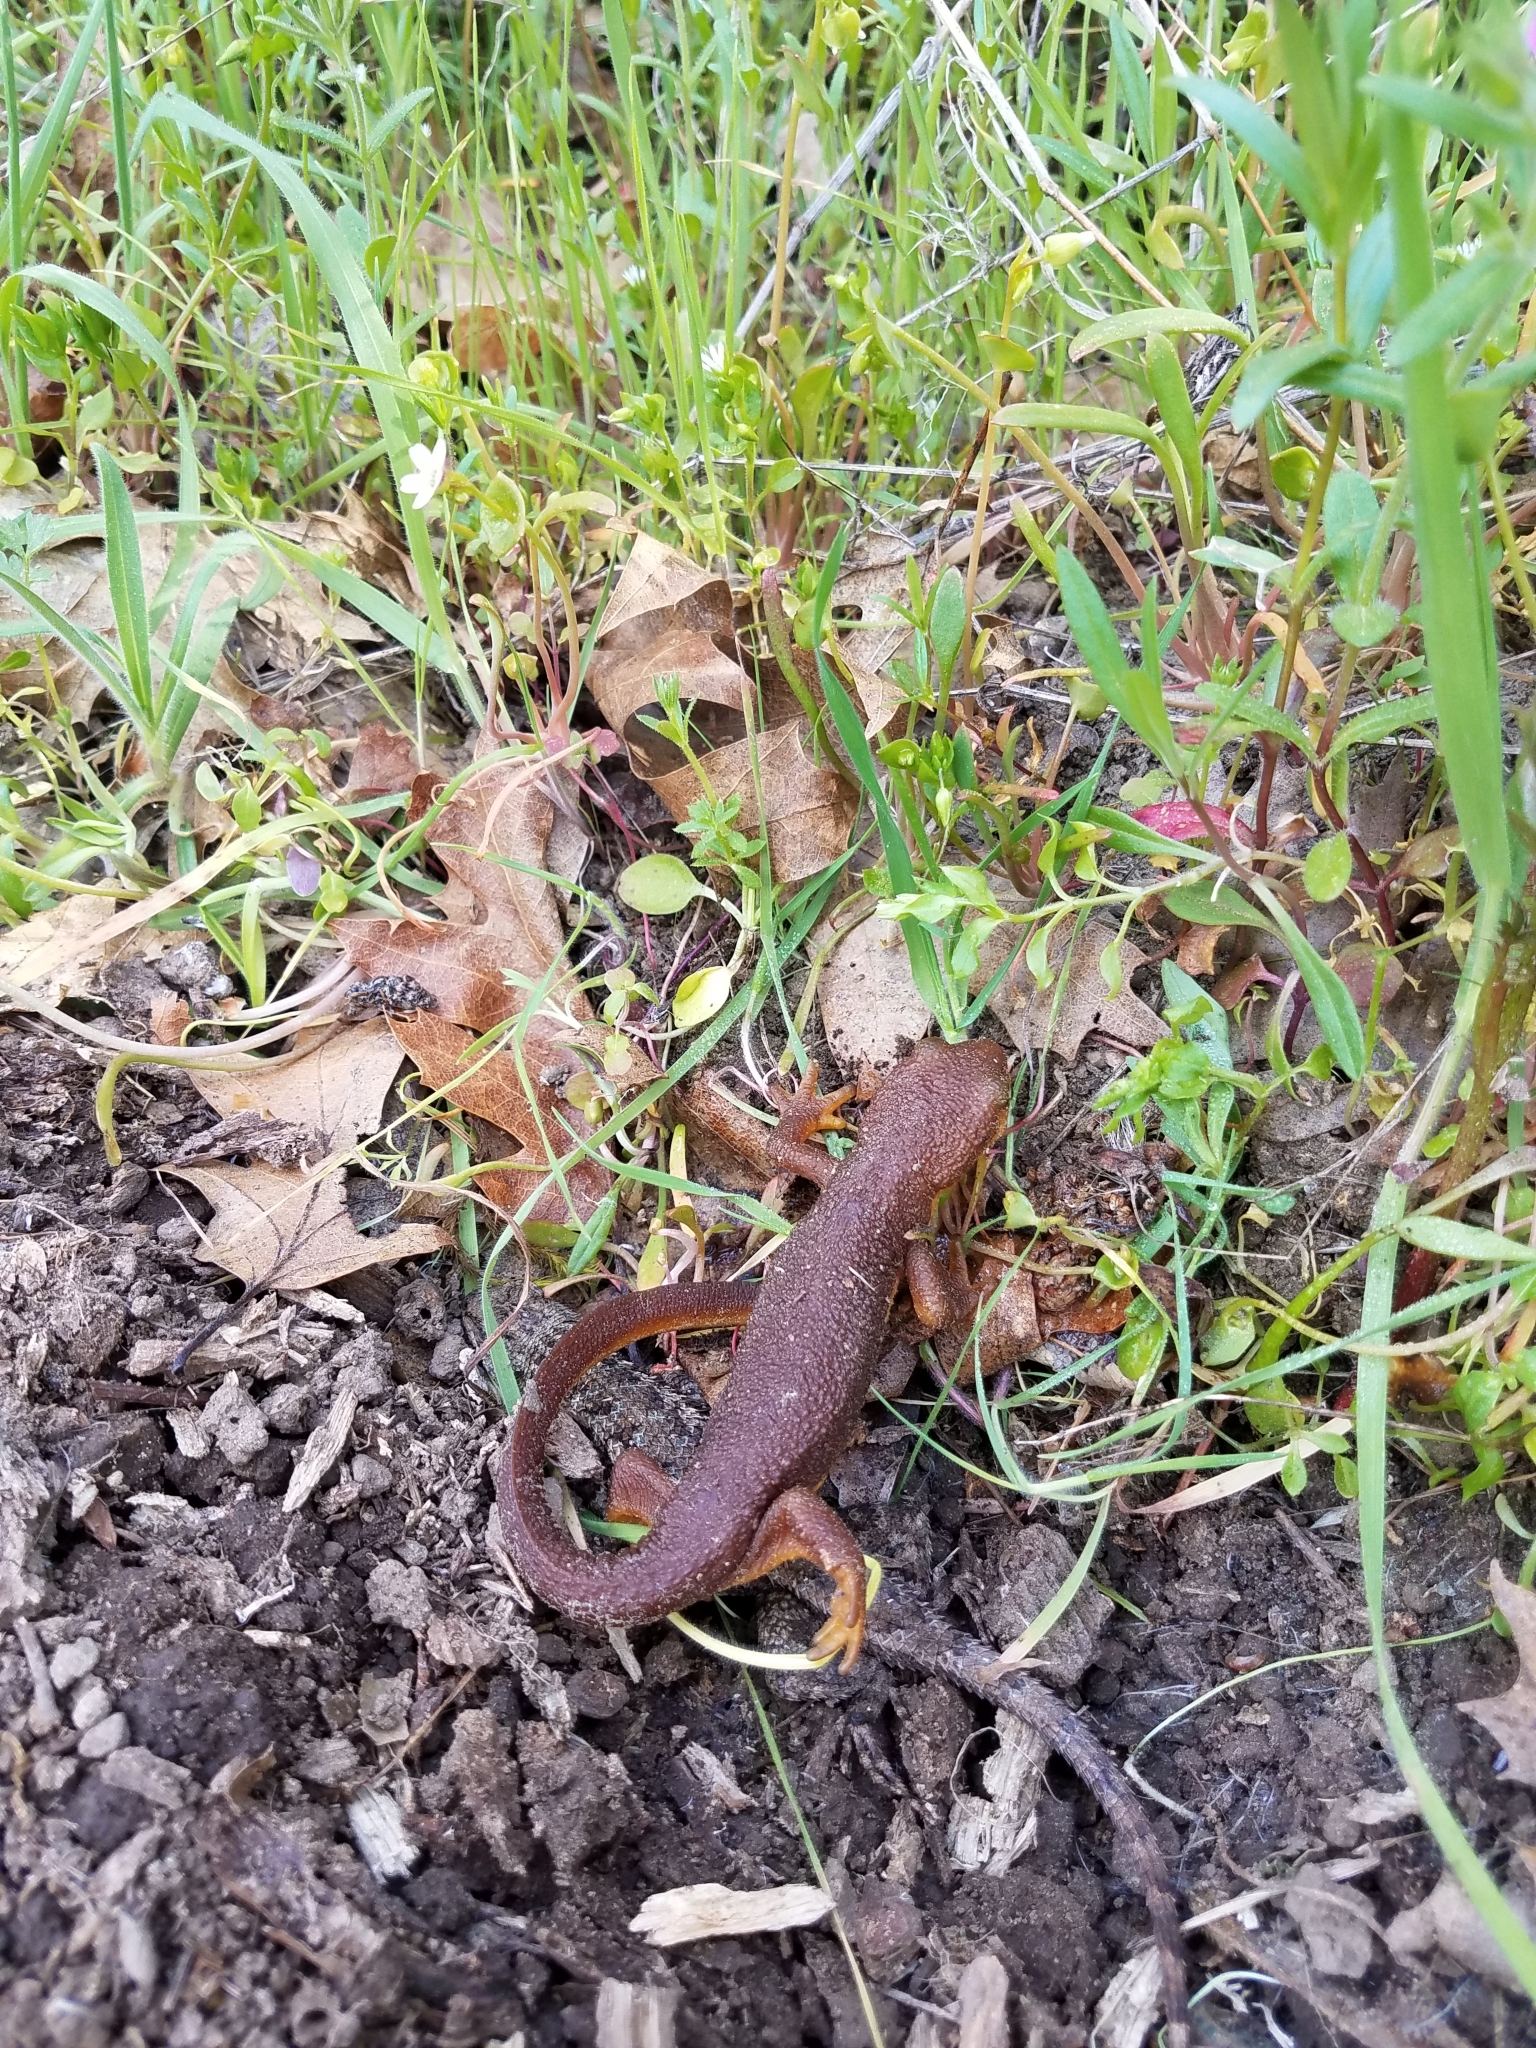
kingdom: Animalia
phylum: Chordata
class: Amphibia
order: Caudata
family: Salamandridae
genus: Taricha
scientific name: Taricha torosa
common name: California newt
